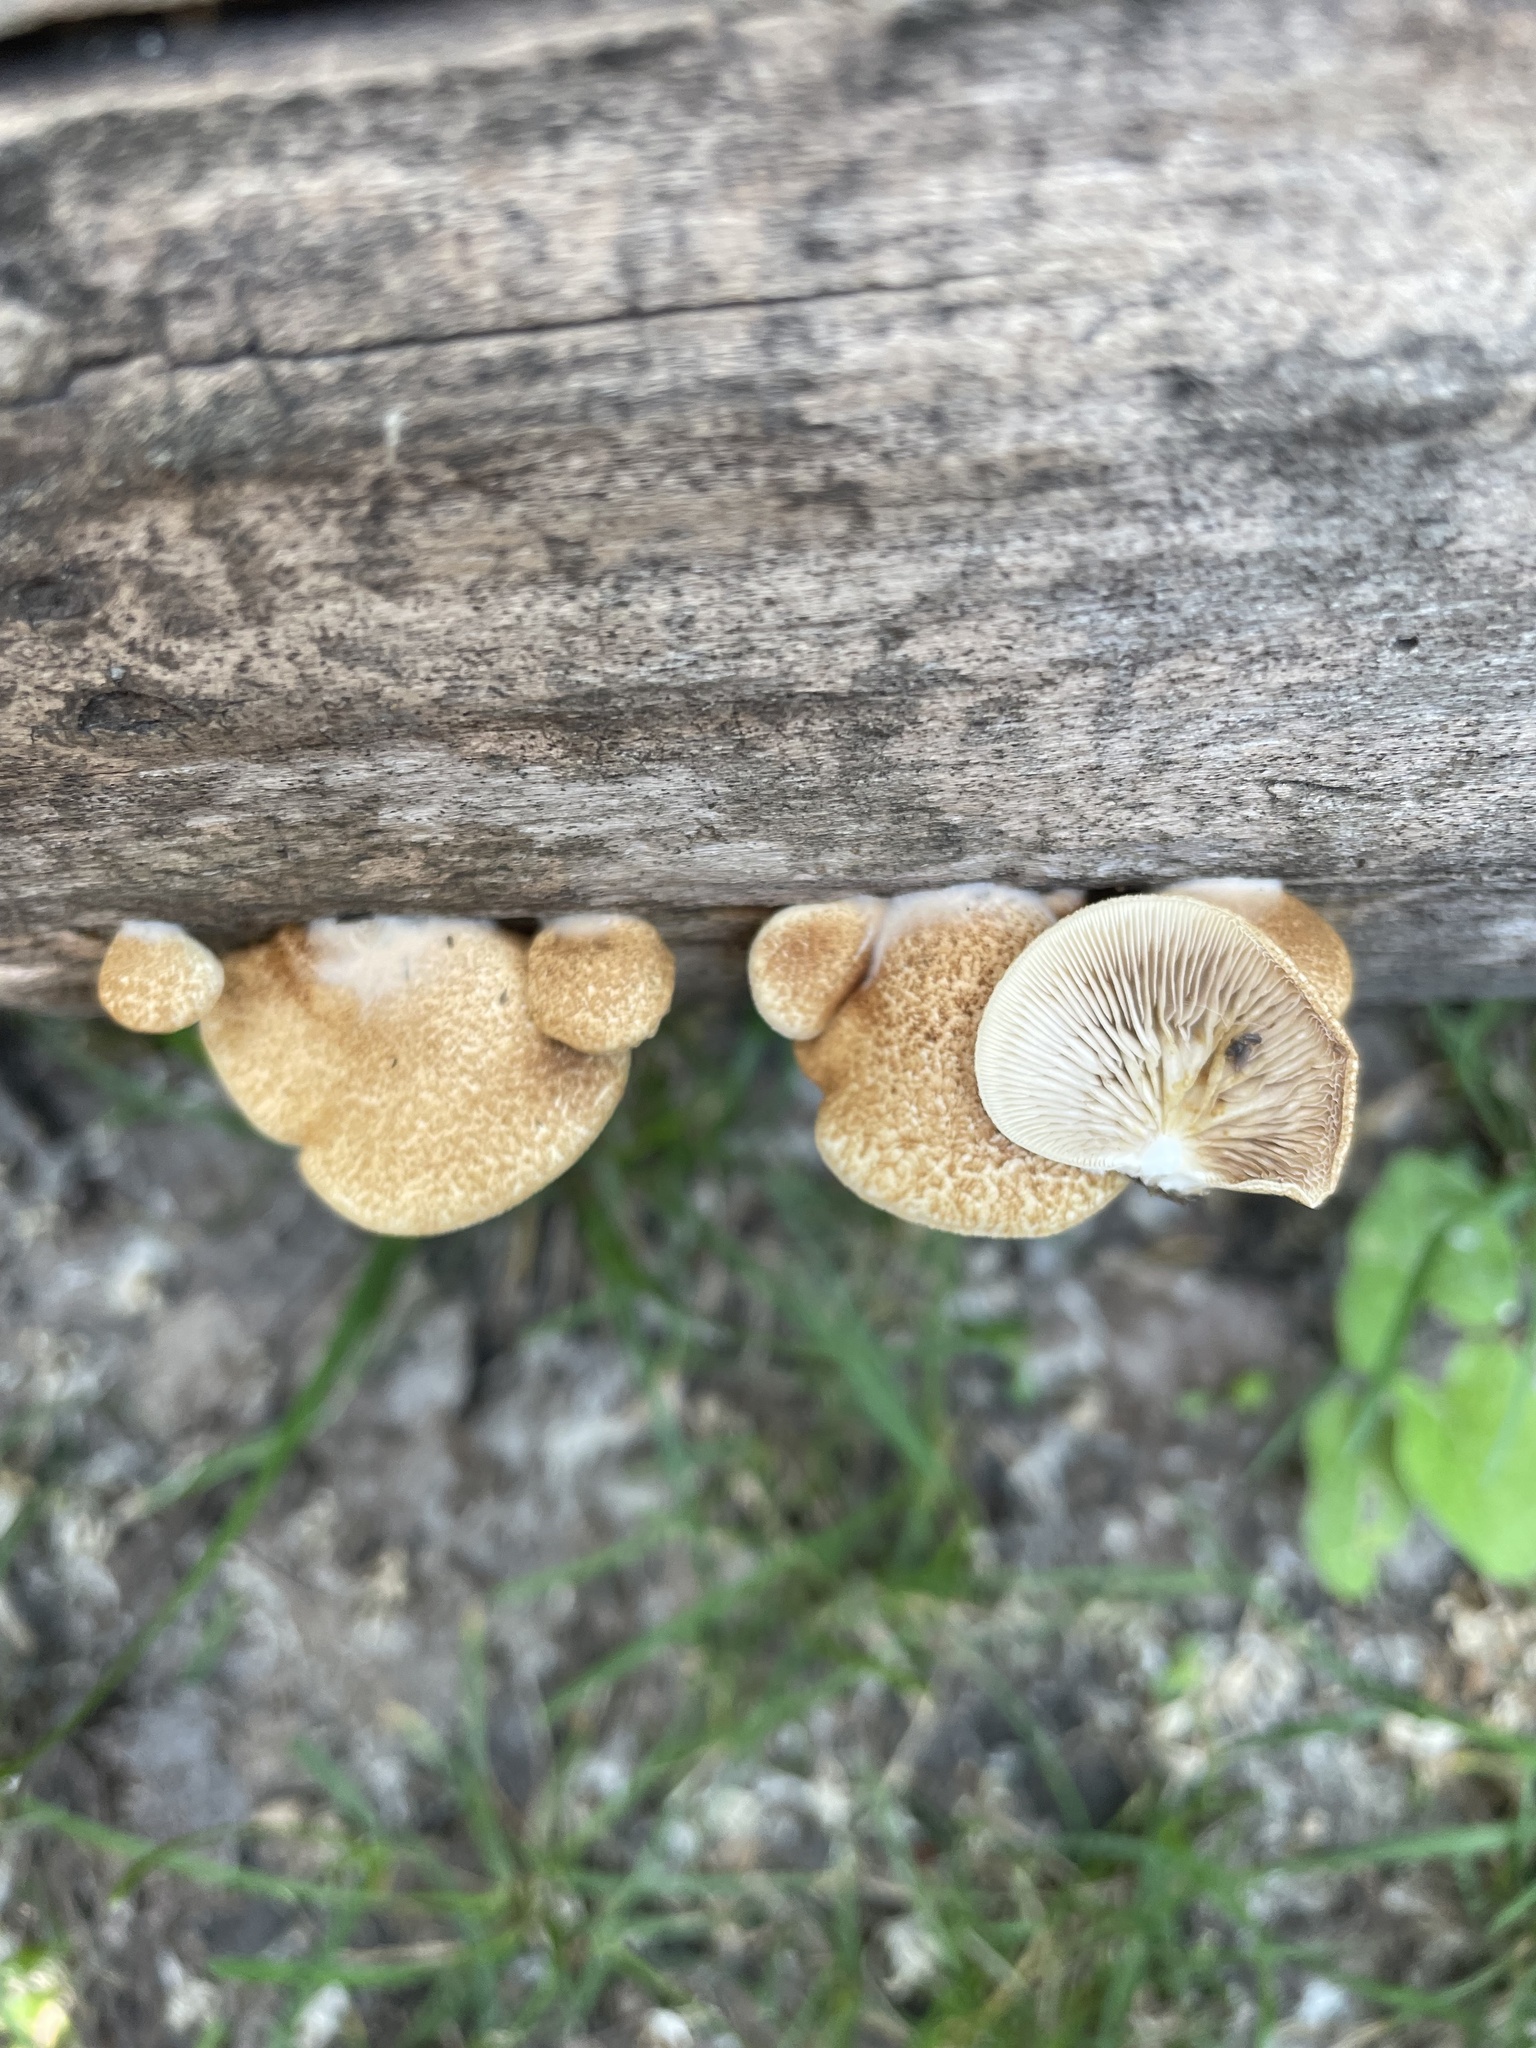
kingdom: Fungi
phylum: Basidiomycota
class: Agaricomycetes
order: Agaricales
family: Crepidotaceae
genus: Crepidotus
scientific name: Crepidotus calolepis
